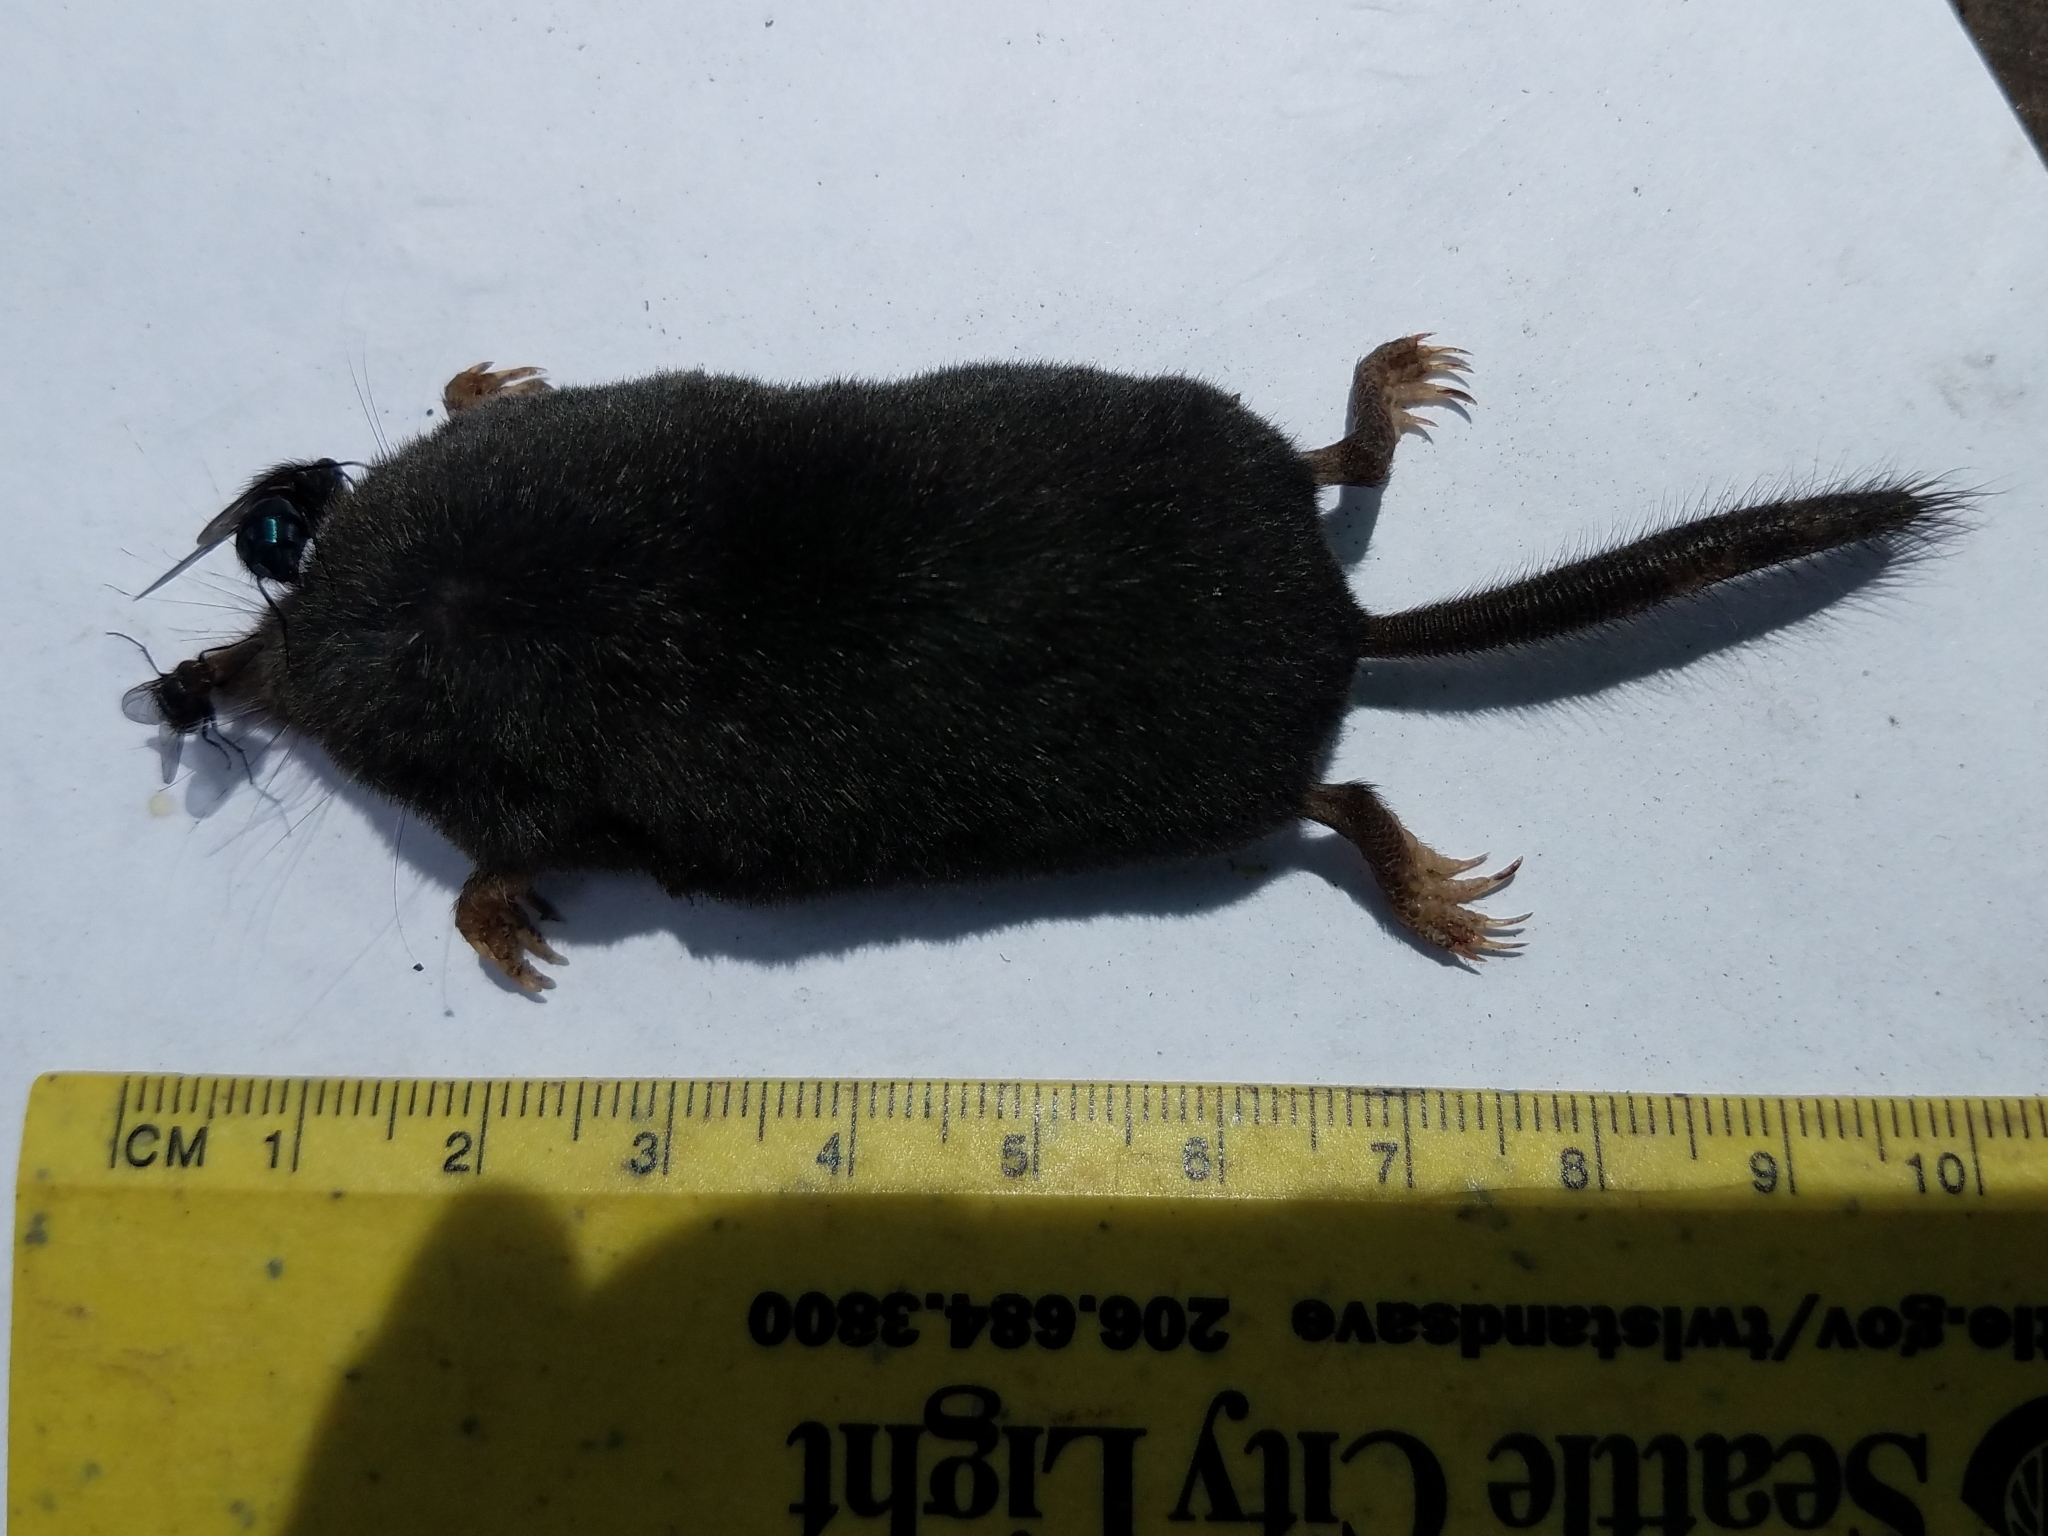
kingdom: Animalia
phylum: Chordata
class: Mammalia
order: Soricomorpha
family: Talpidae
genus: Neurotrichus
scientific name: Neurotrichus gibbsii
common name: American shrew mole
